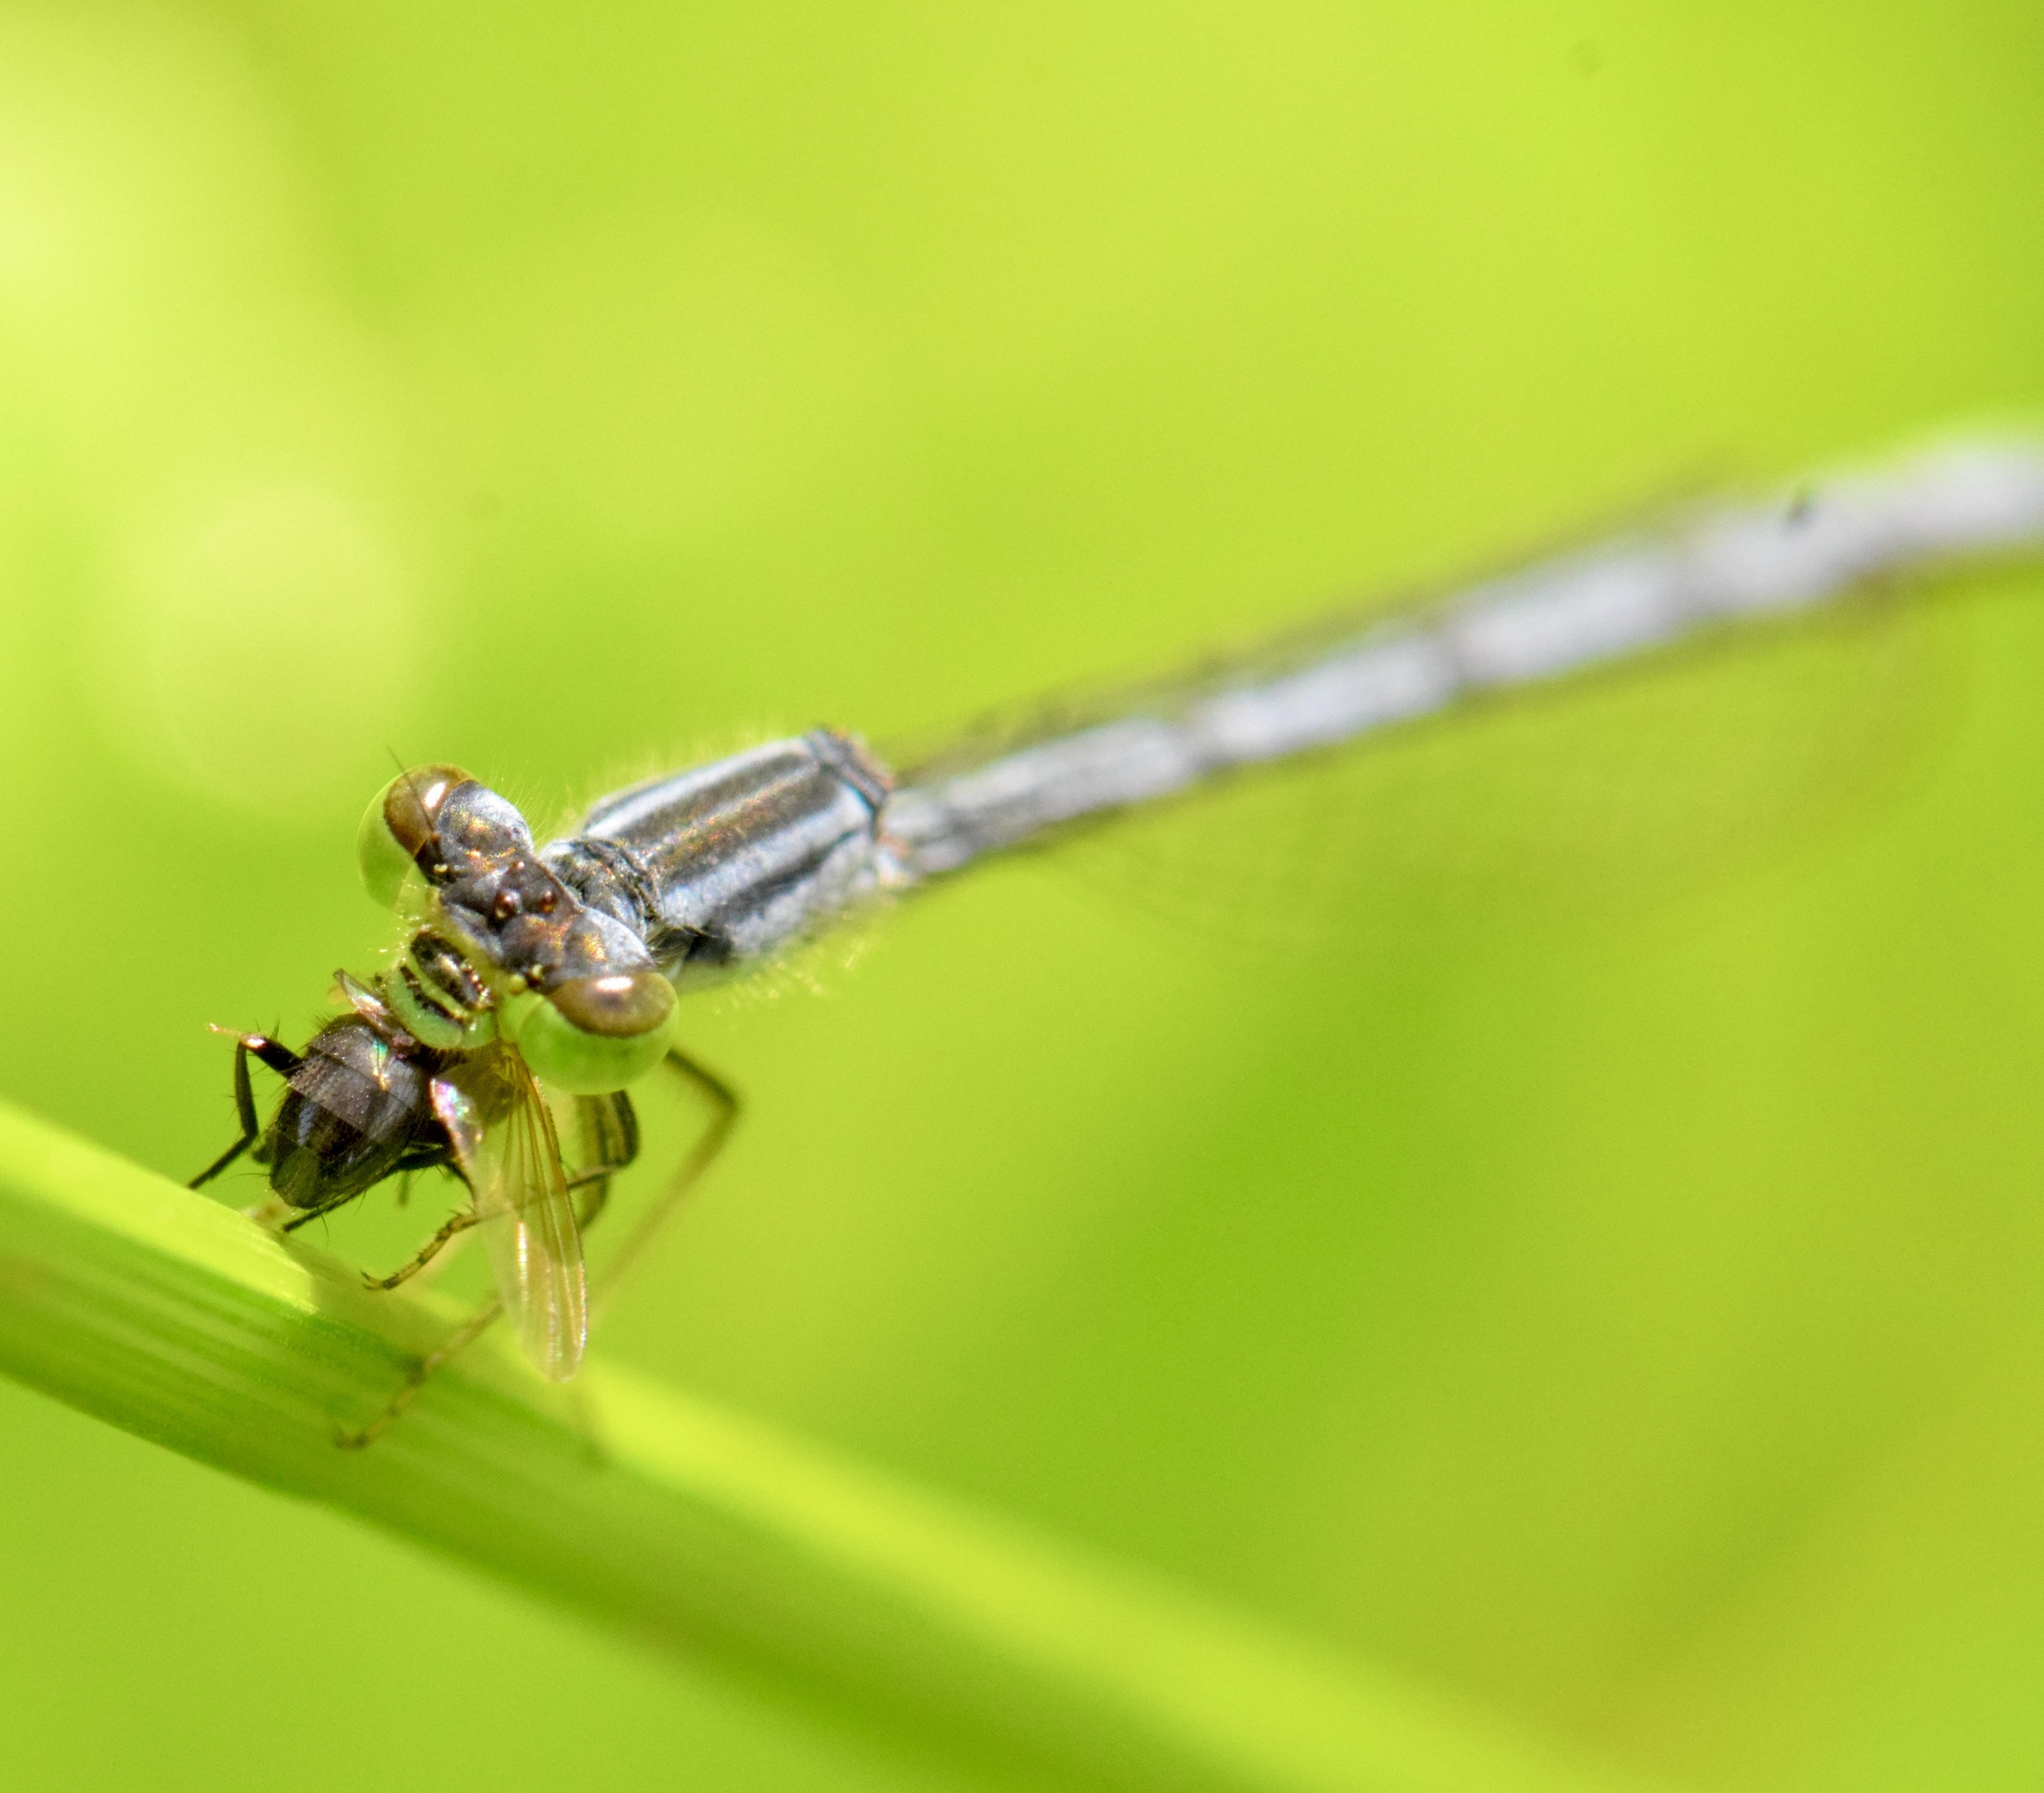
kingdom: Animalia
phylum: Arthropoda
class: Insecta
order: Odonata
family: Coenagrionidae
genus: Ischnura
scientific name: Ischnura verticalis
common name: Eastern forktail
